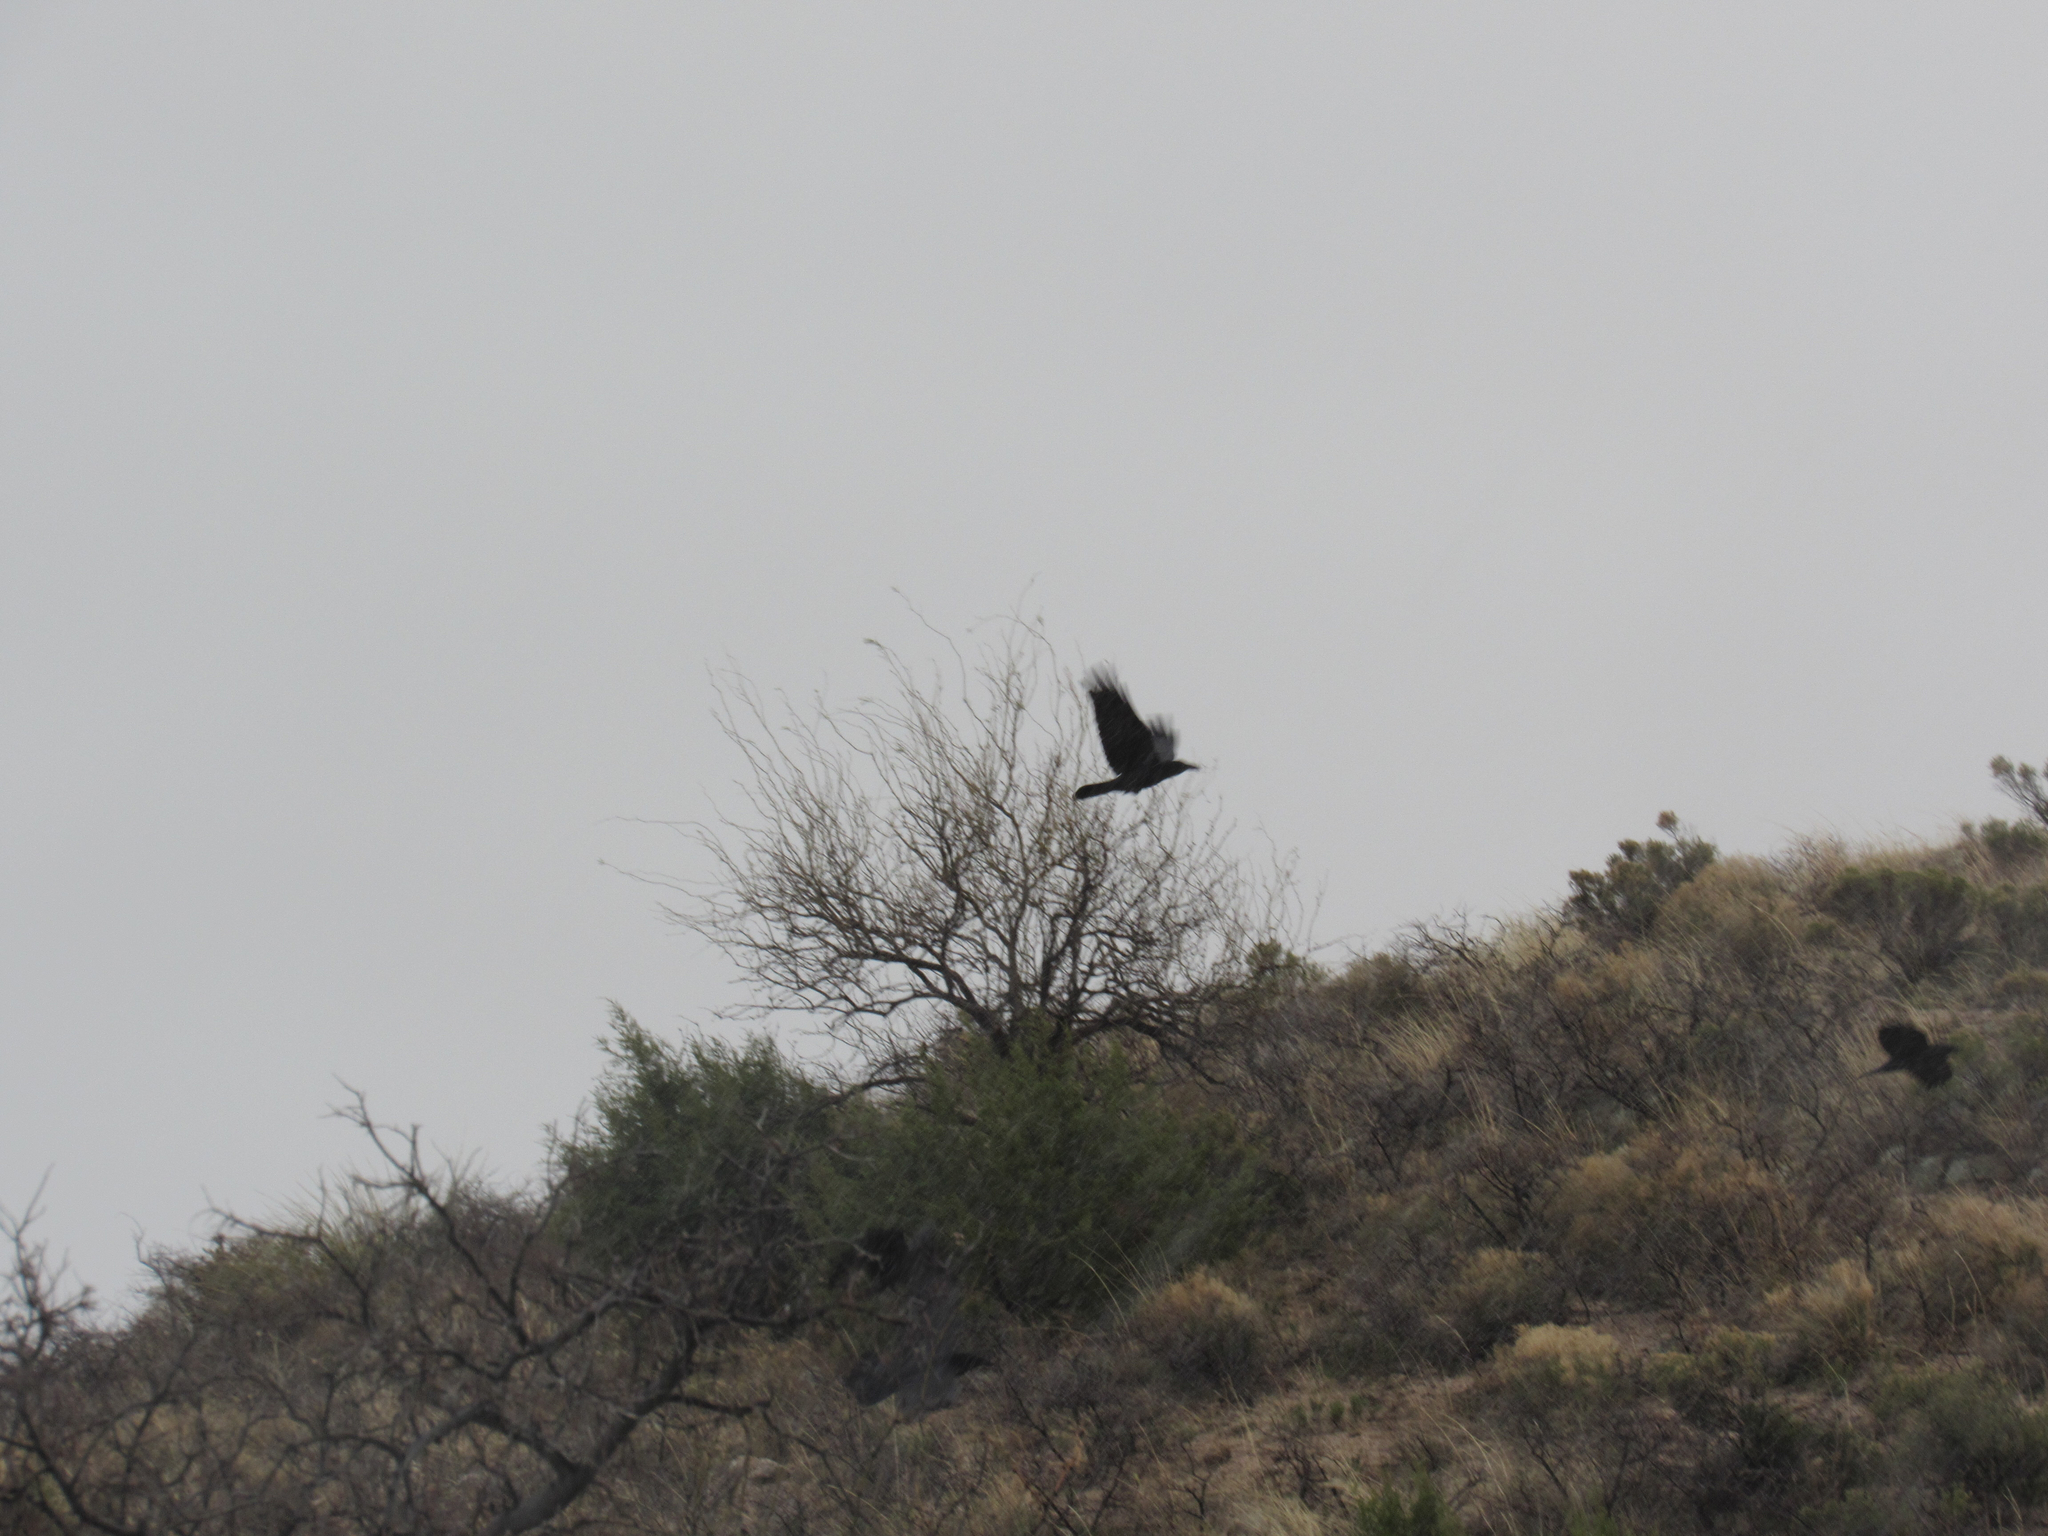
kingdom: Animalia
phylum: Chordata
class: Aves
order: Passeriformes
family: Corvidae
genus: Corvus
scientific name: Corvus corax
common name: Common raven
